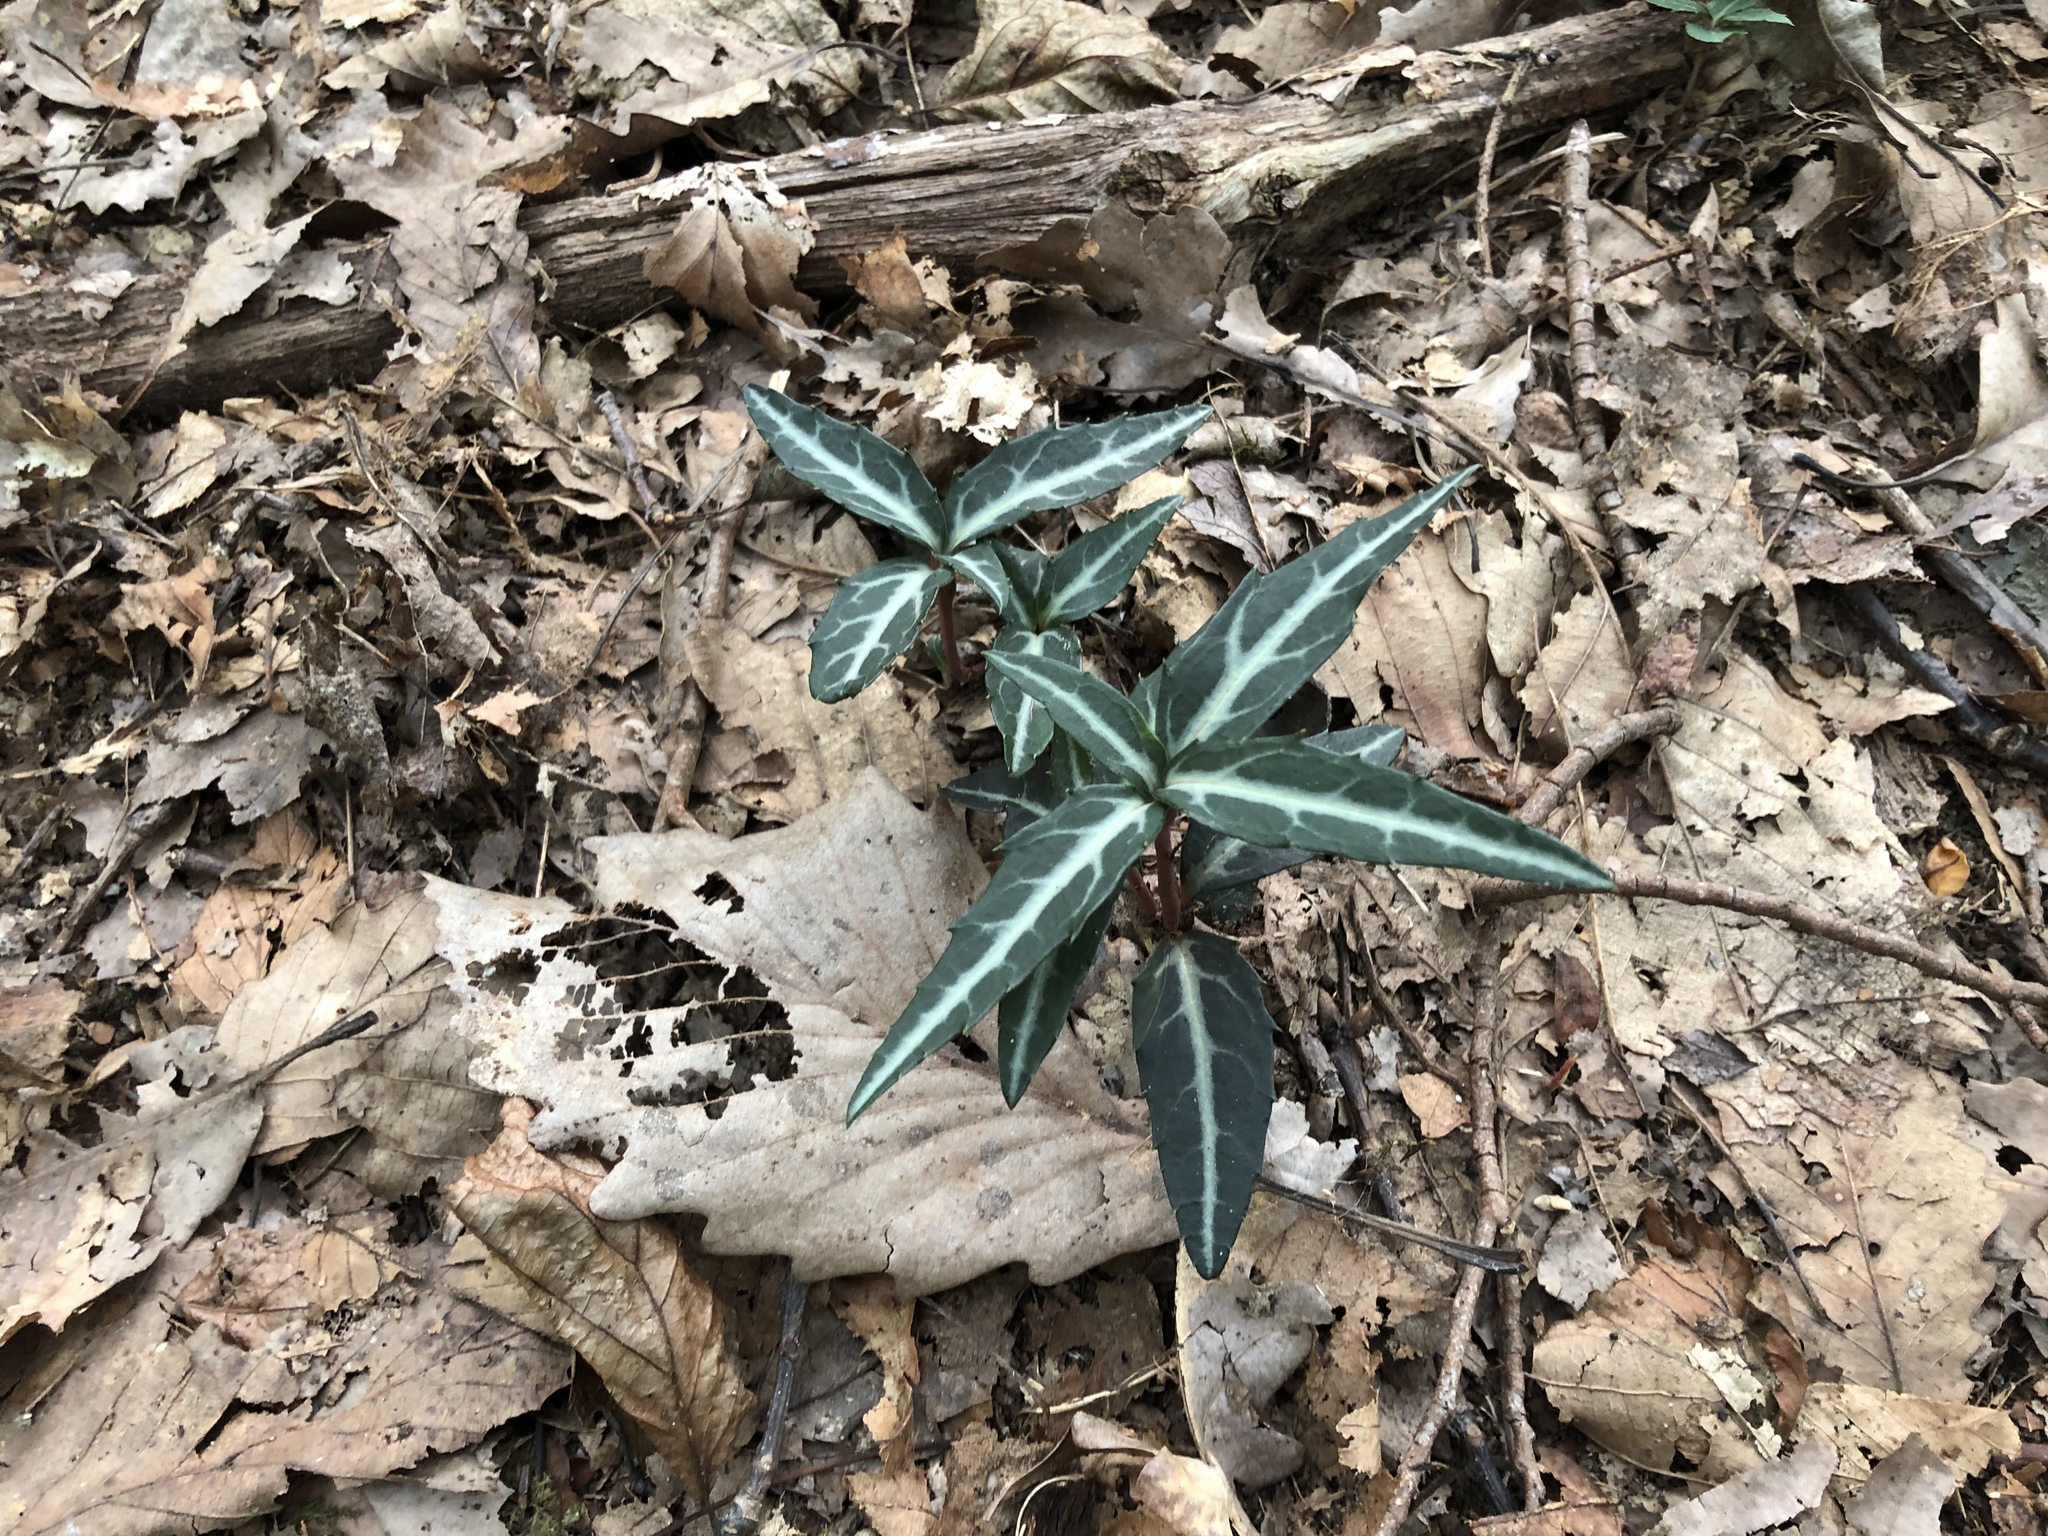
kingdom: Plantae
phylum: Tracheophyta
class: Magnoliopsida
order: Ericales
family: Ericaceae
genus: Chimaphila
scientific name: Chimaphila maculata
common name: Spotted pipsissewa
